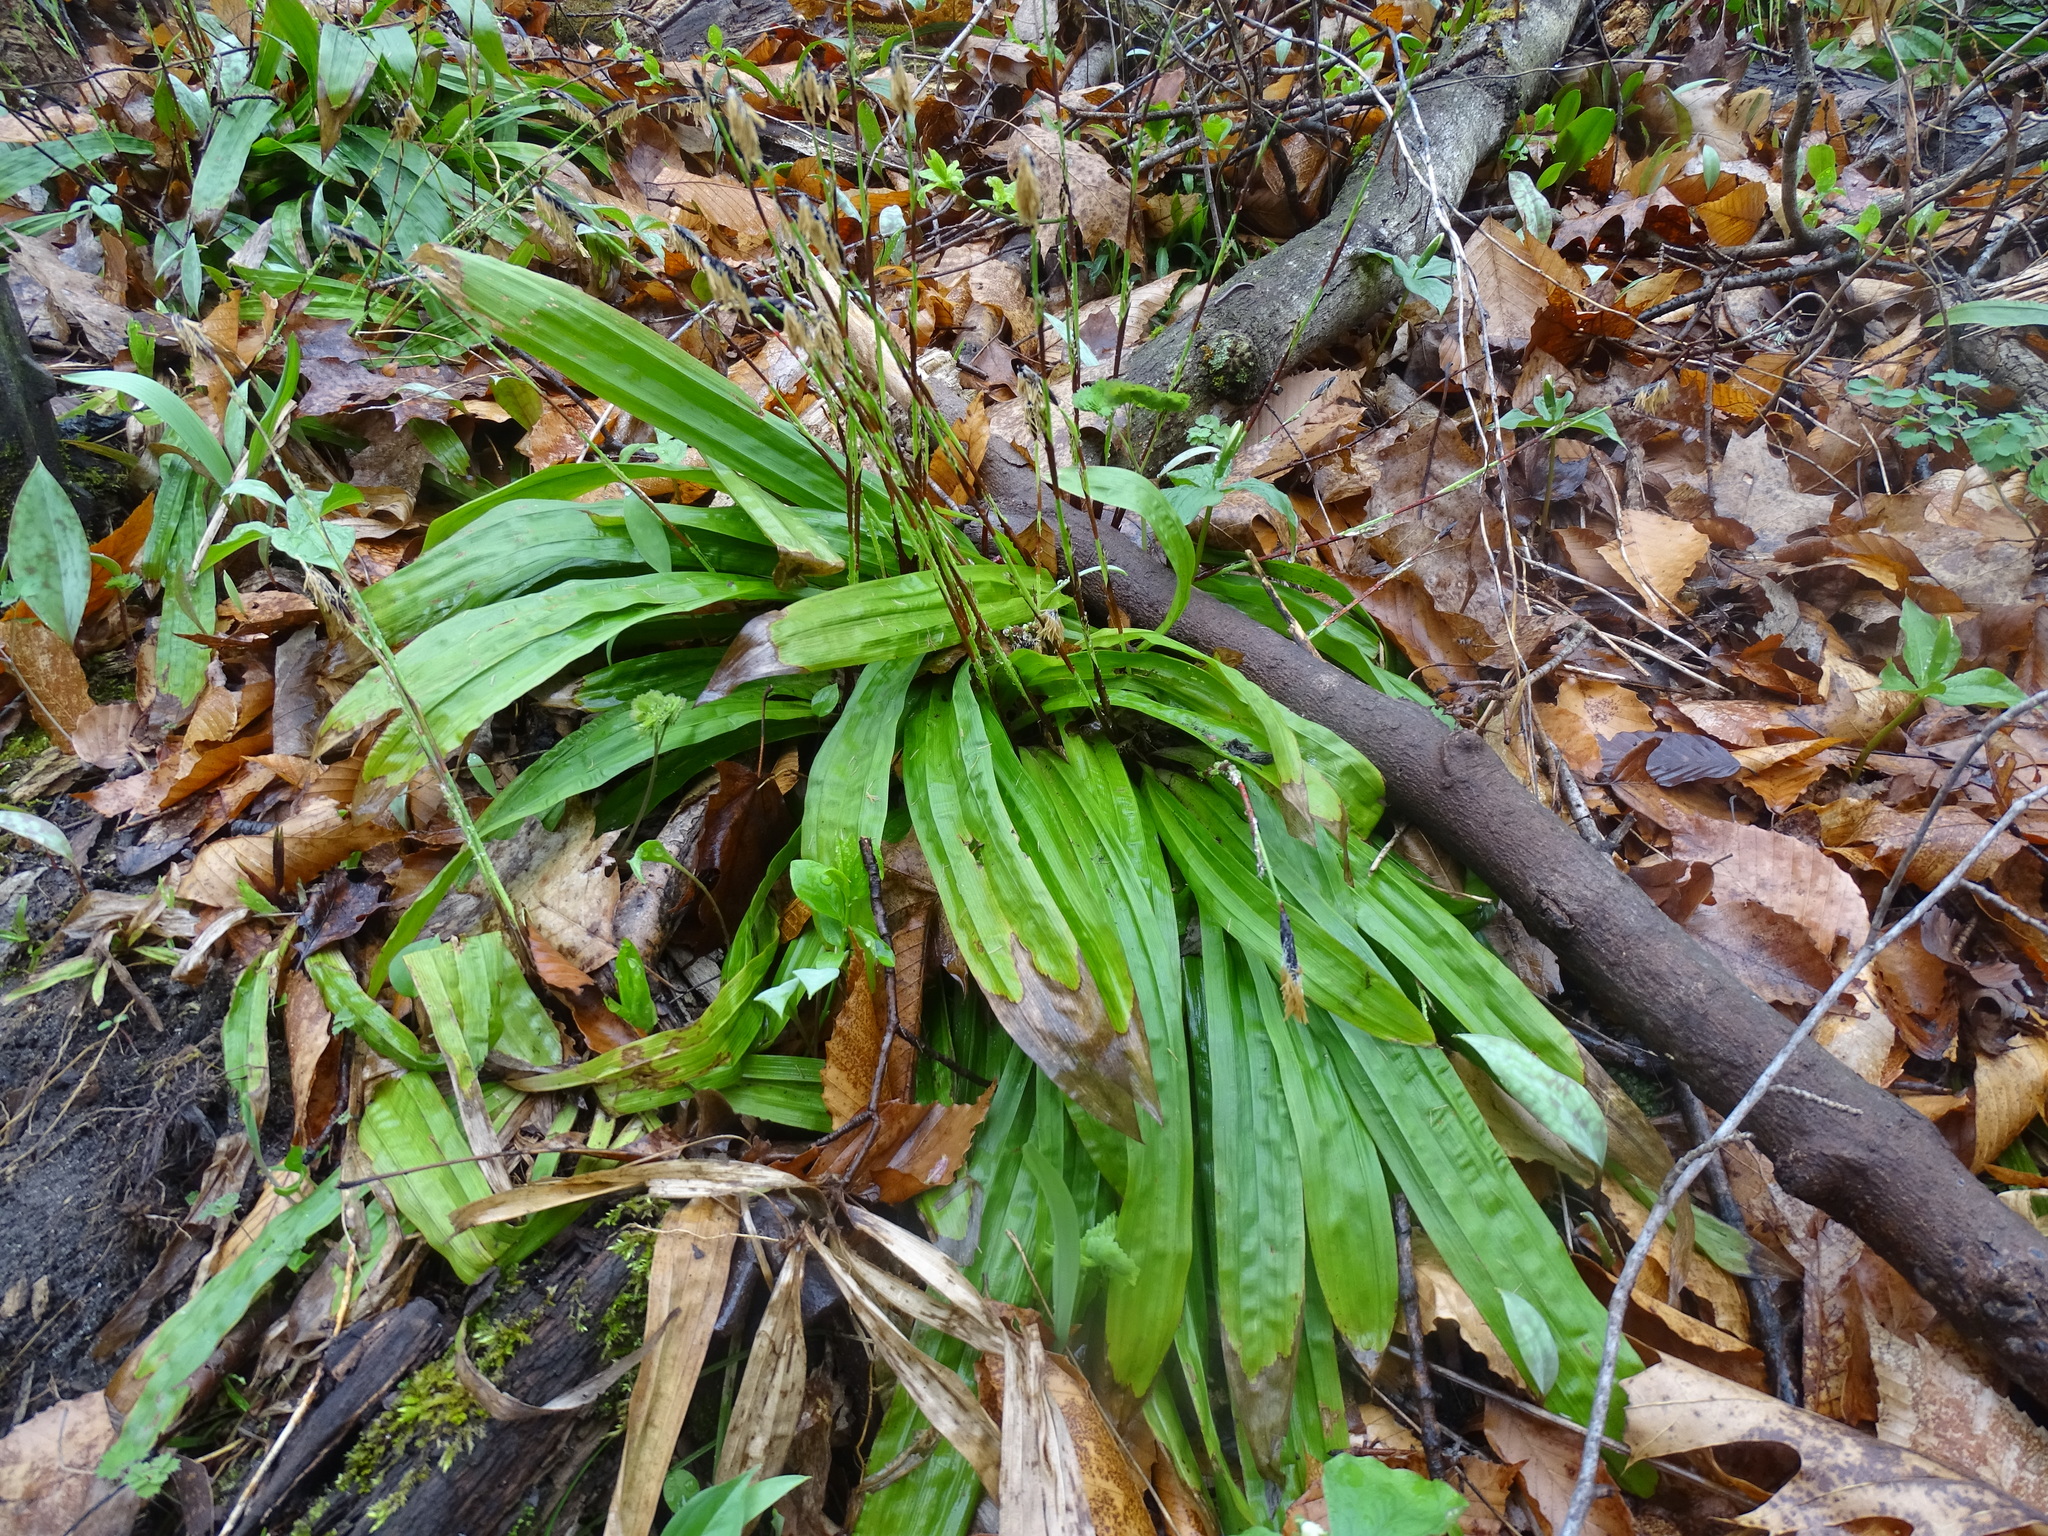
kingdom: Plantae
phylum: Tracheophyta
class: Liliopsida
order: Poales
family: Cyperaceae
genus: Carex
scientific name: Carex plantaginea
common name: Plantain-leaved sedge
